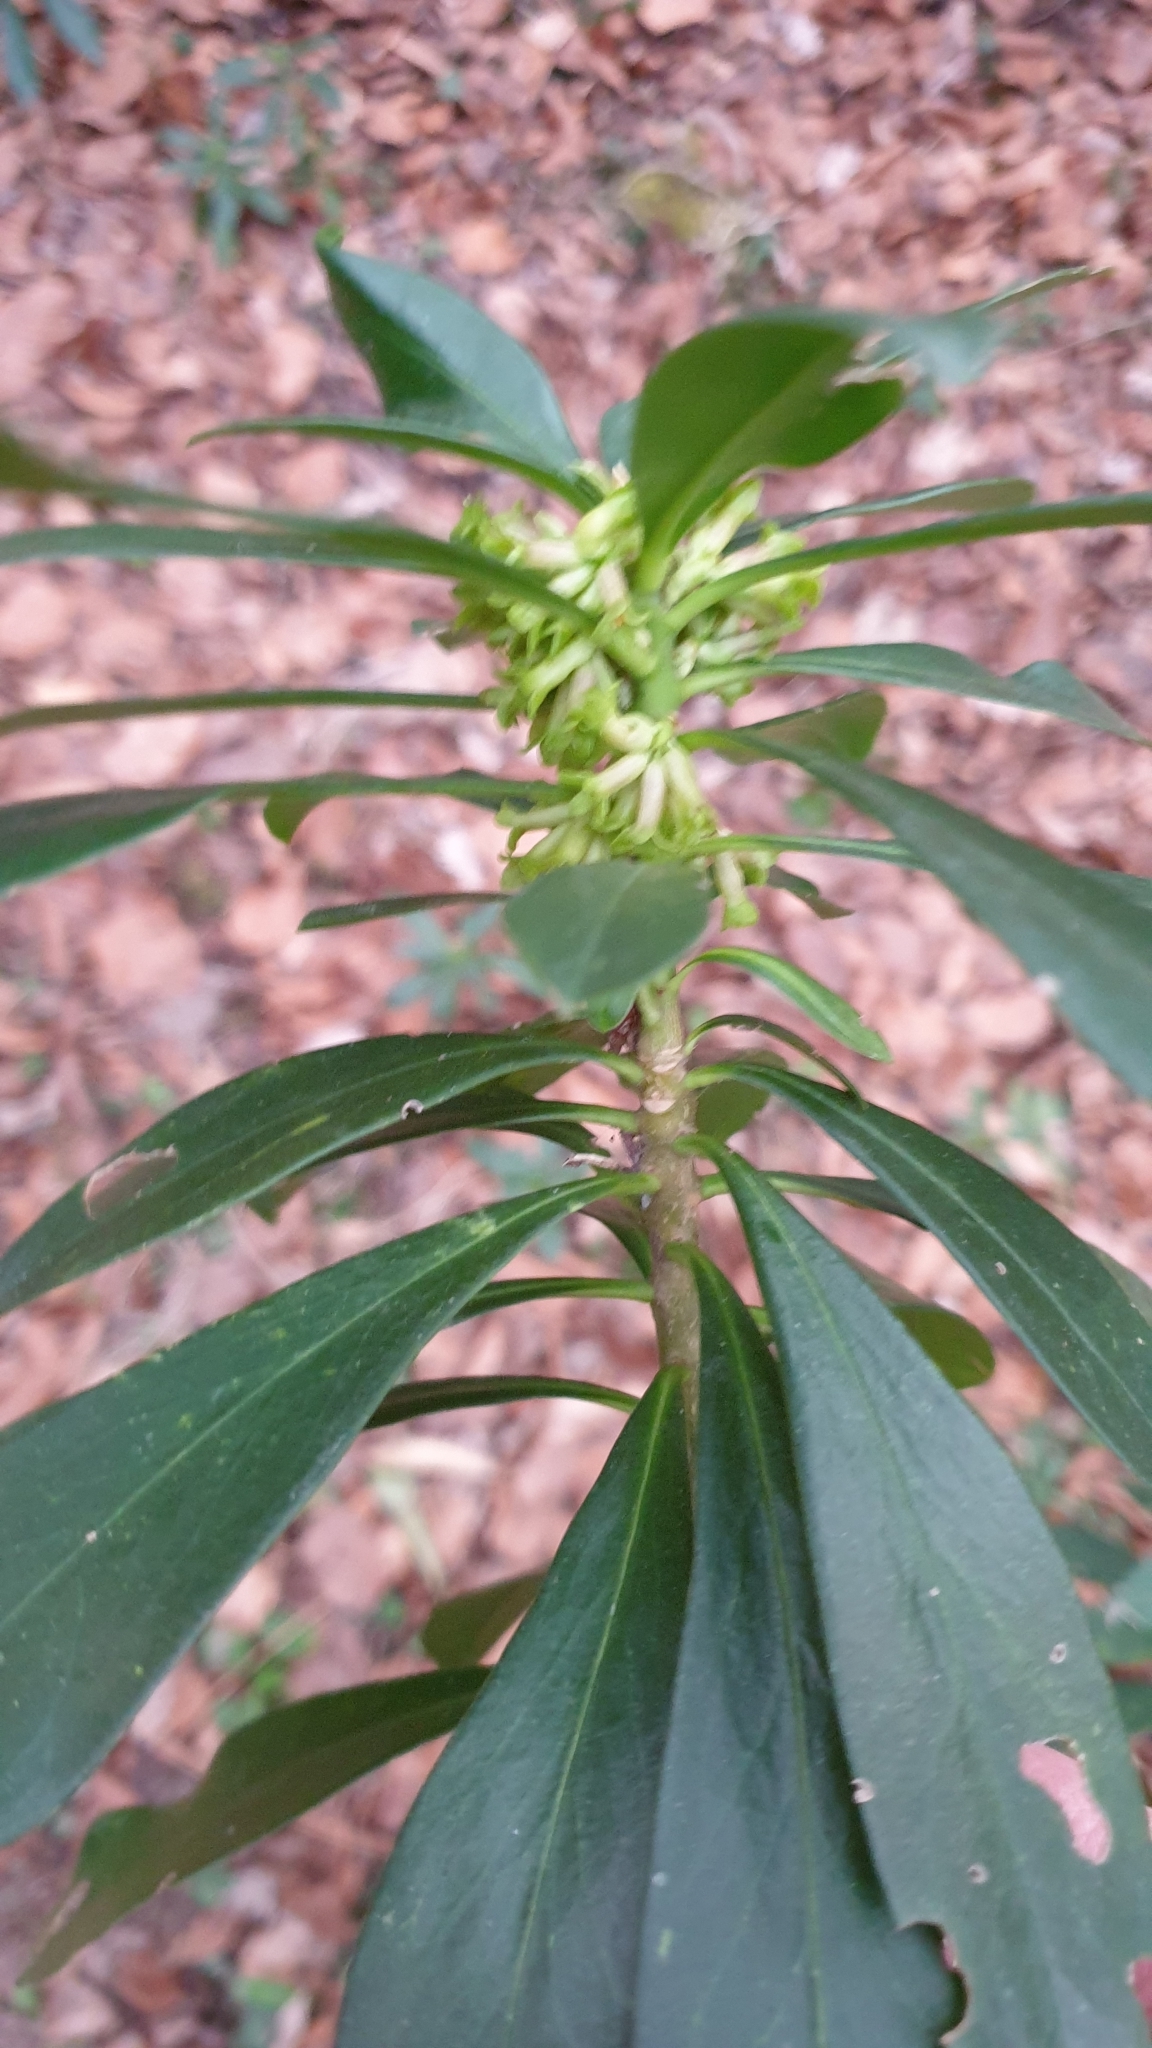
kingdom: Plantae
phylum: Tracheophyta
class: Magnoliopsida
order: Malvales
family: Thymelaeaceae
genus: Daphne
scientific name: Daphne laureola
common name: Spurge-laurel
